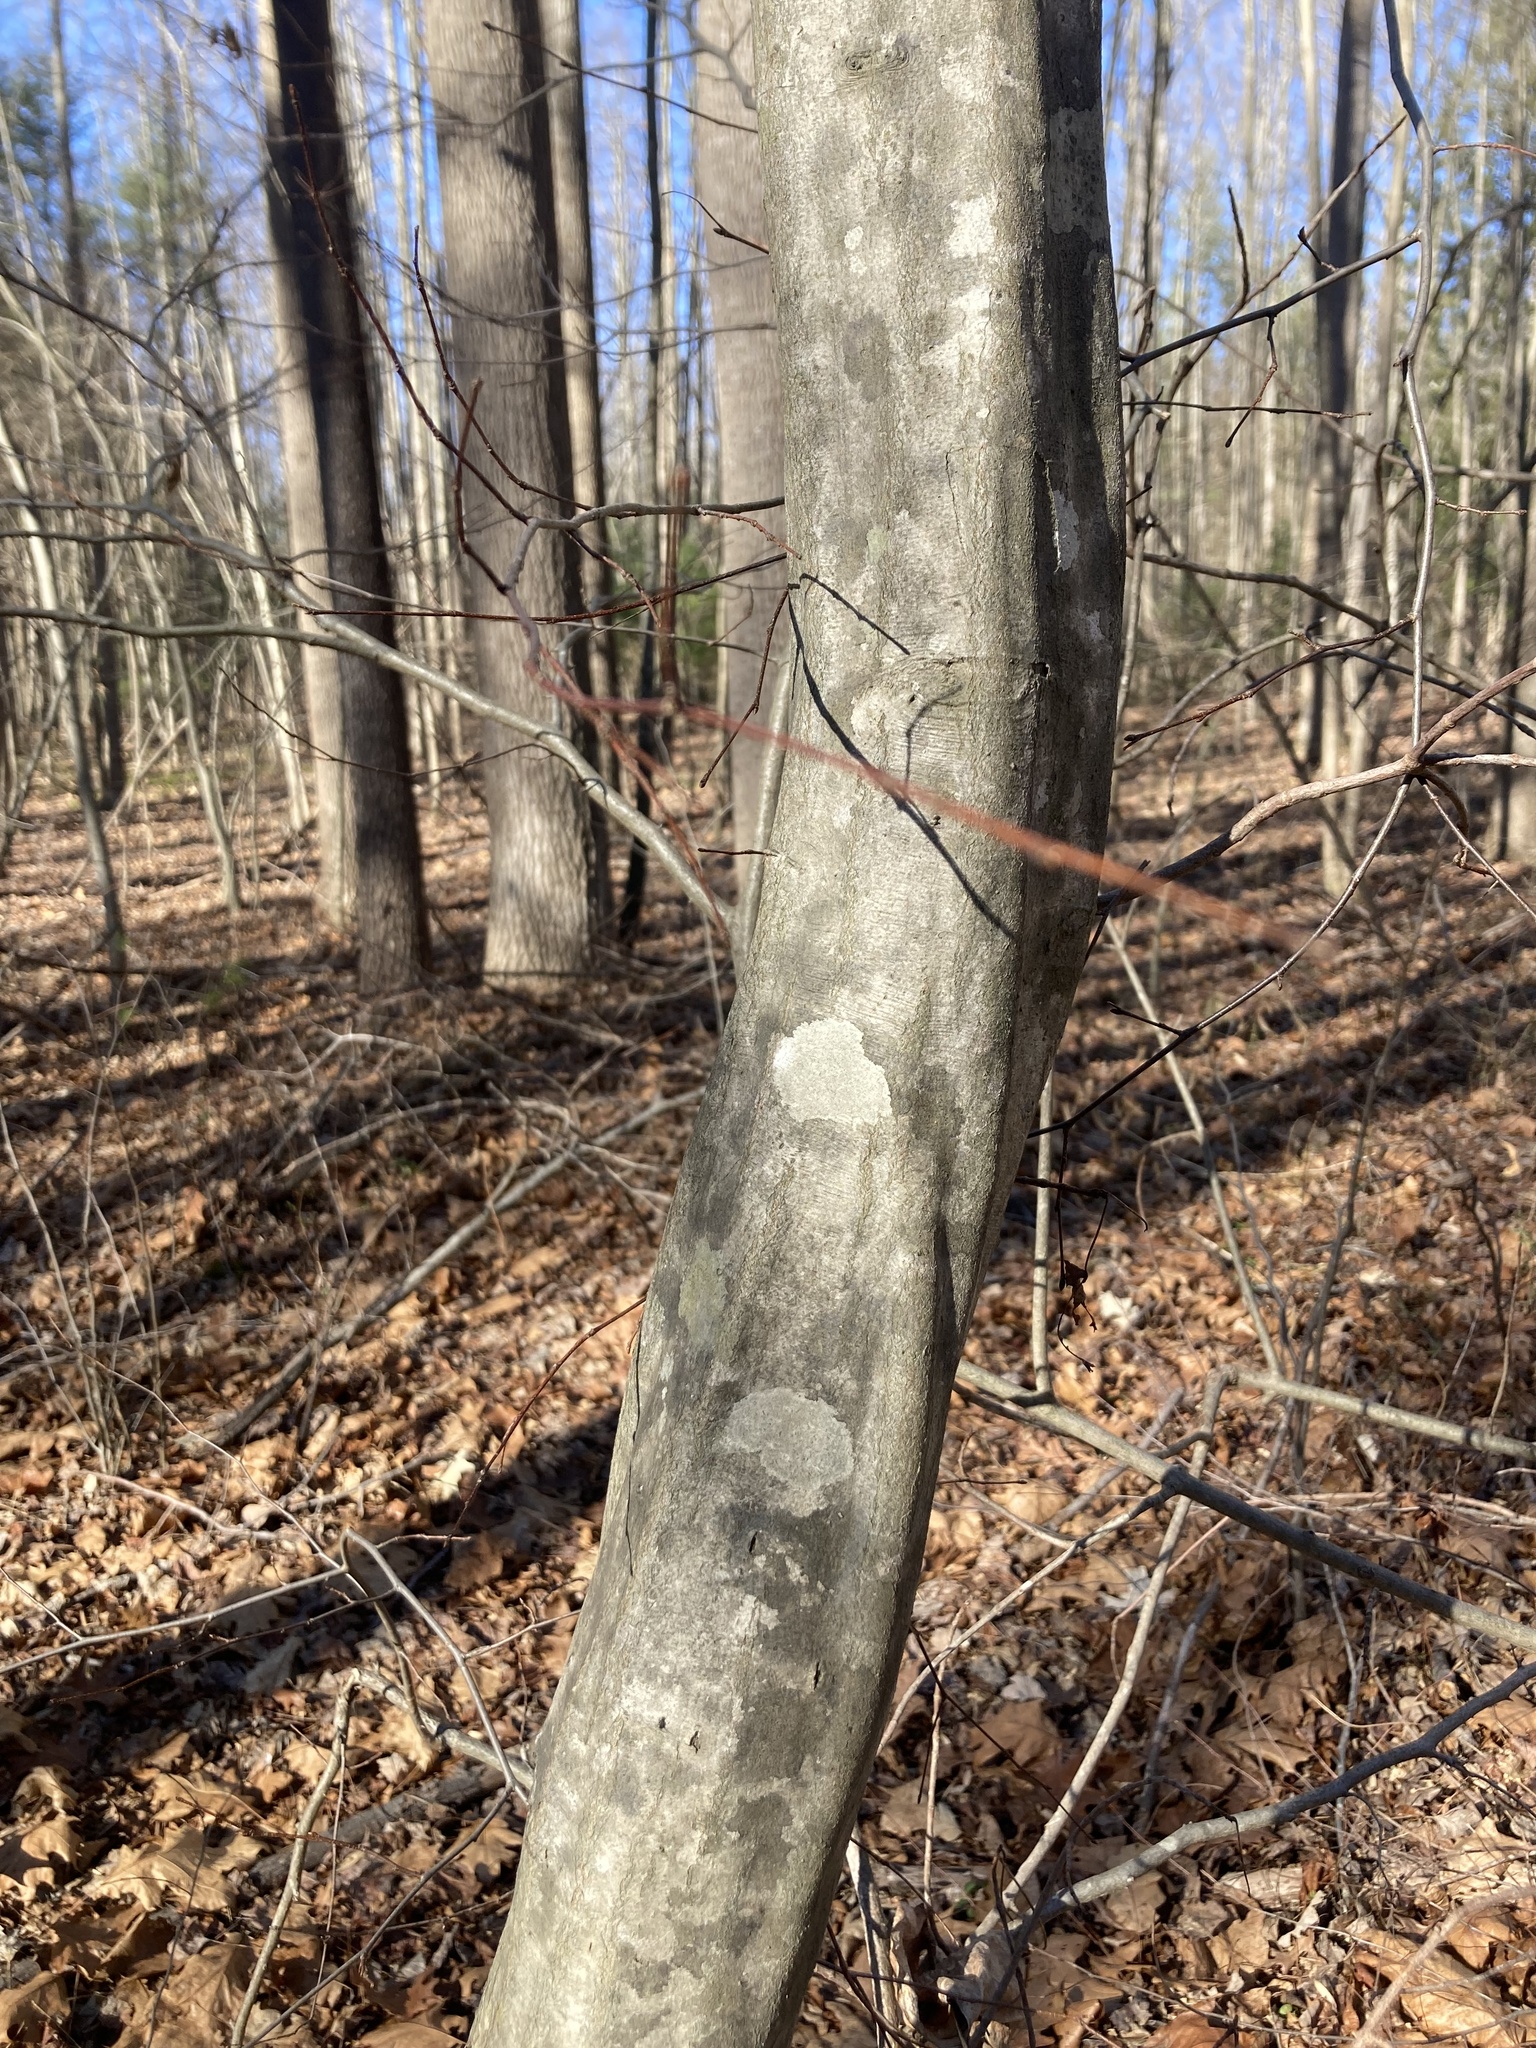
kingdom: Plantae
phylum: Tracheophyta
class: Magnoliopsida
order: Fagales
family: Betulaceae
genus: Carpinus
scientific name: Carpinus caroliniana
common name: American hornbeam
